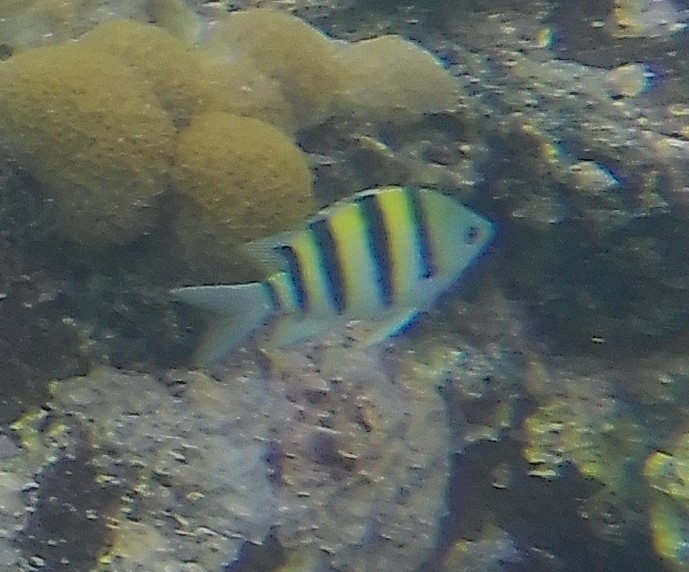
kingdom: Animalia
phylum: Chordata
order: Perciformes
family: Pomacentridae
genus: Abudefduf
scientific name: Abudefduf vaigiensis
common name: Indo-pacific sergeant
